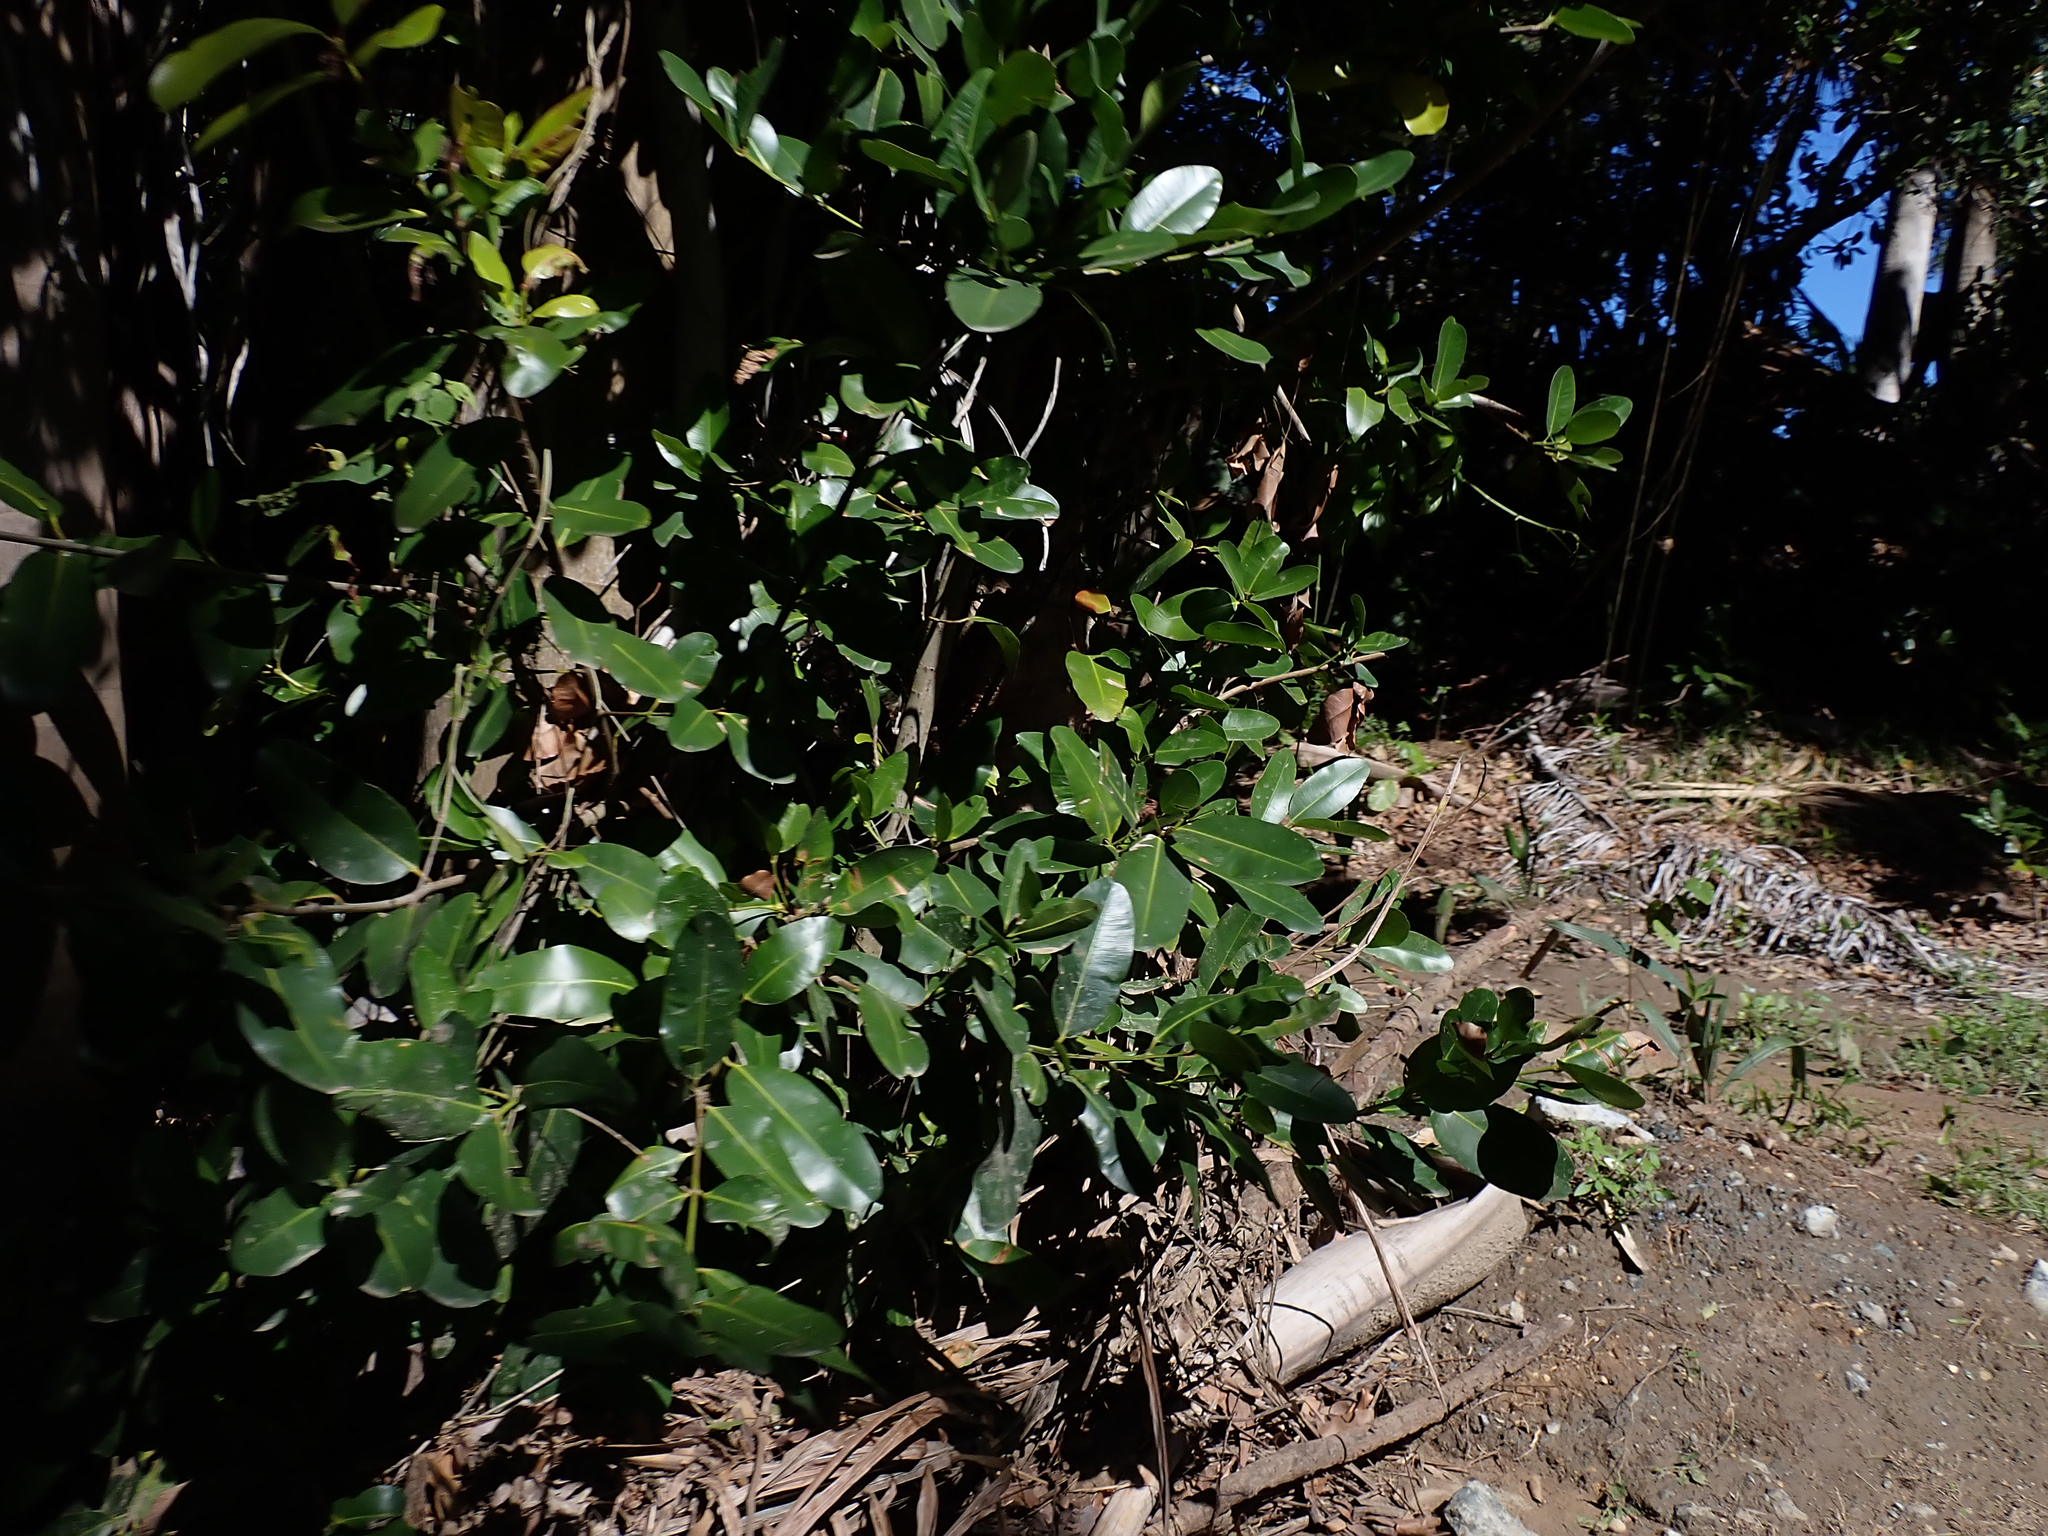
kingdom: Plantae
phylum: Tracheophyta
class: Magnoliopsida
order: Malpighiales
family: Calophyllaceae
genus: Calophyllum
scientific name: Calophyllum antillanum
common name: Santa maria-tree
